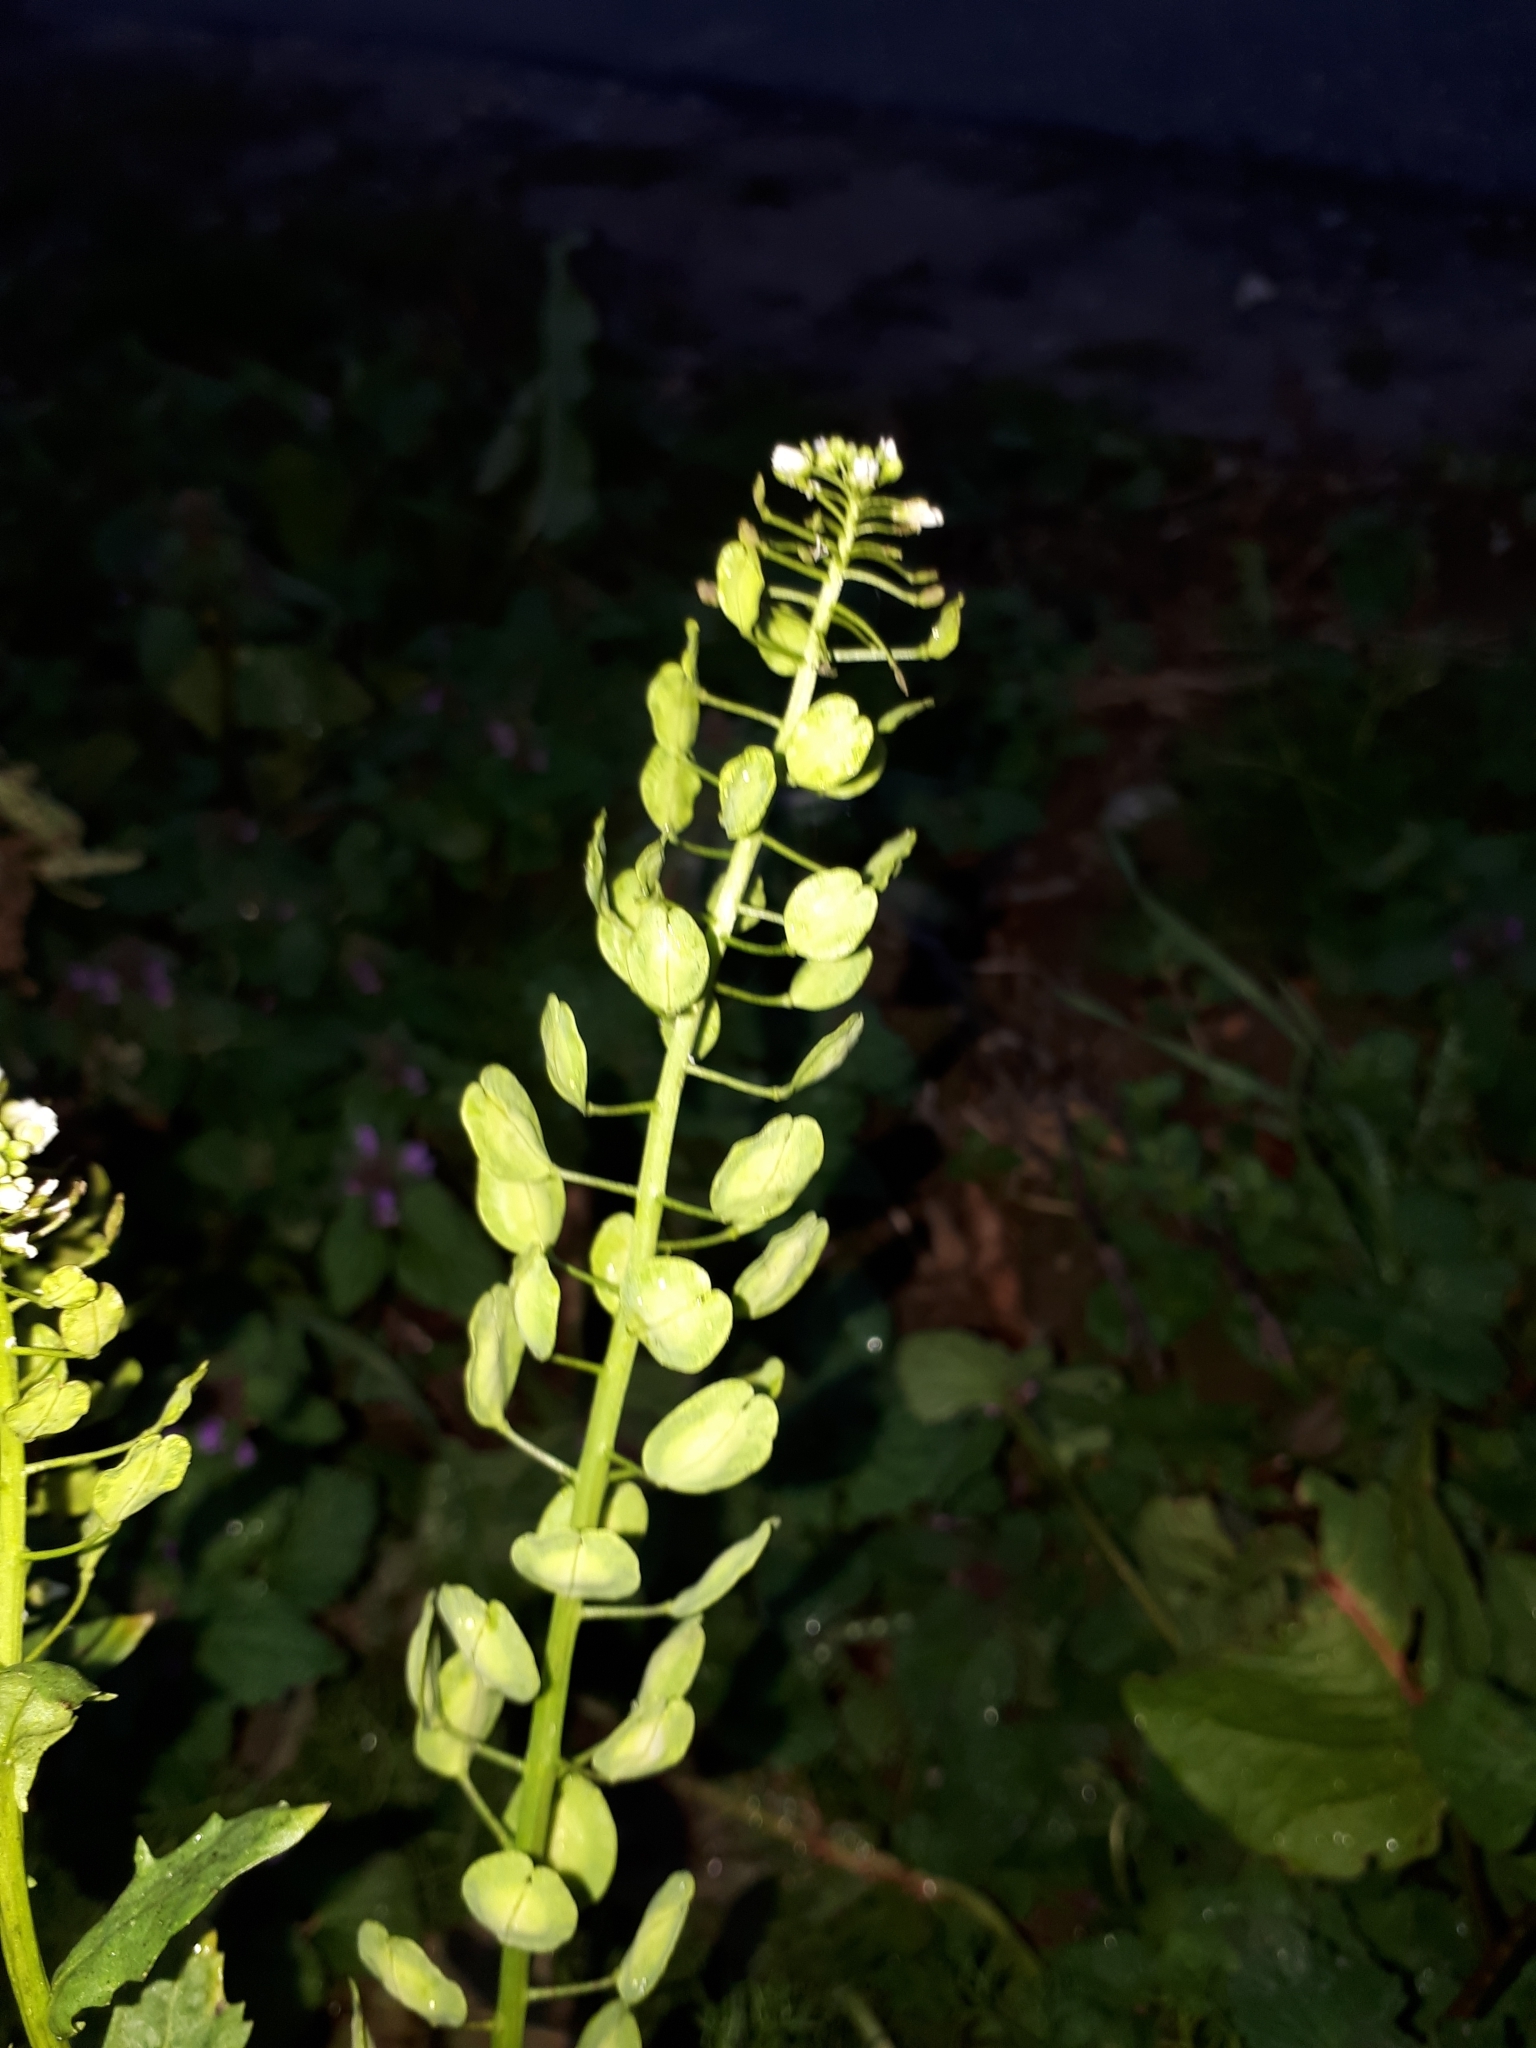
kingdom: Plantae
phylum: Tracheophyta
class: Magnoliopsida
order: Brassicales
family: Brassicaceae
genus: Thlaspi
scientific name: Thlaspi arvense
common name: Field pennycress
